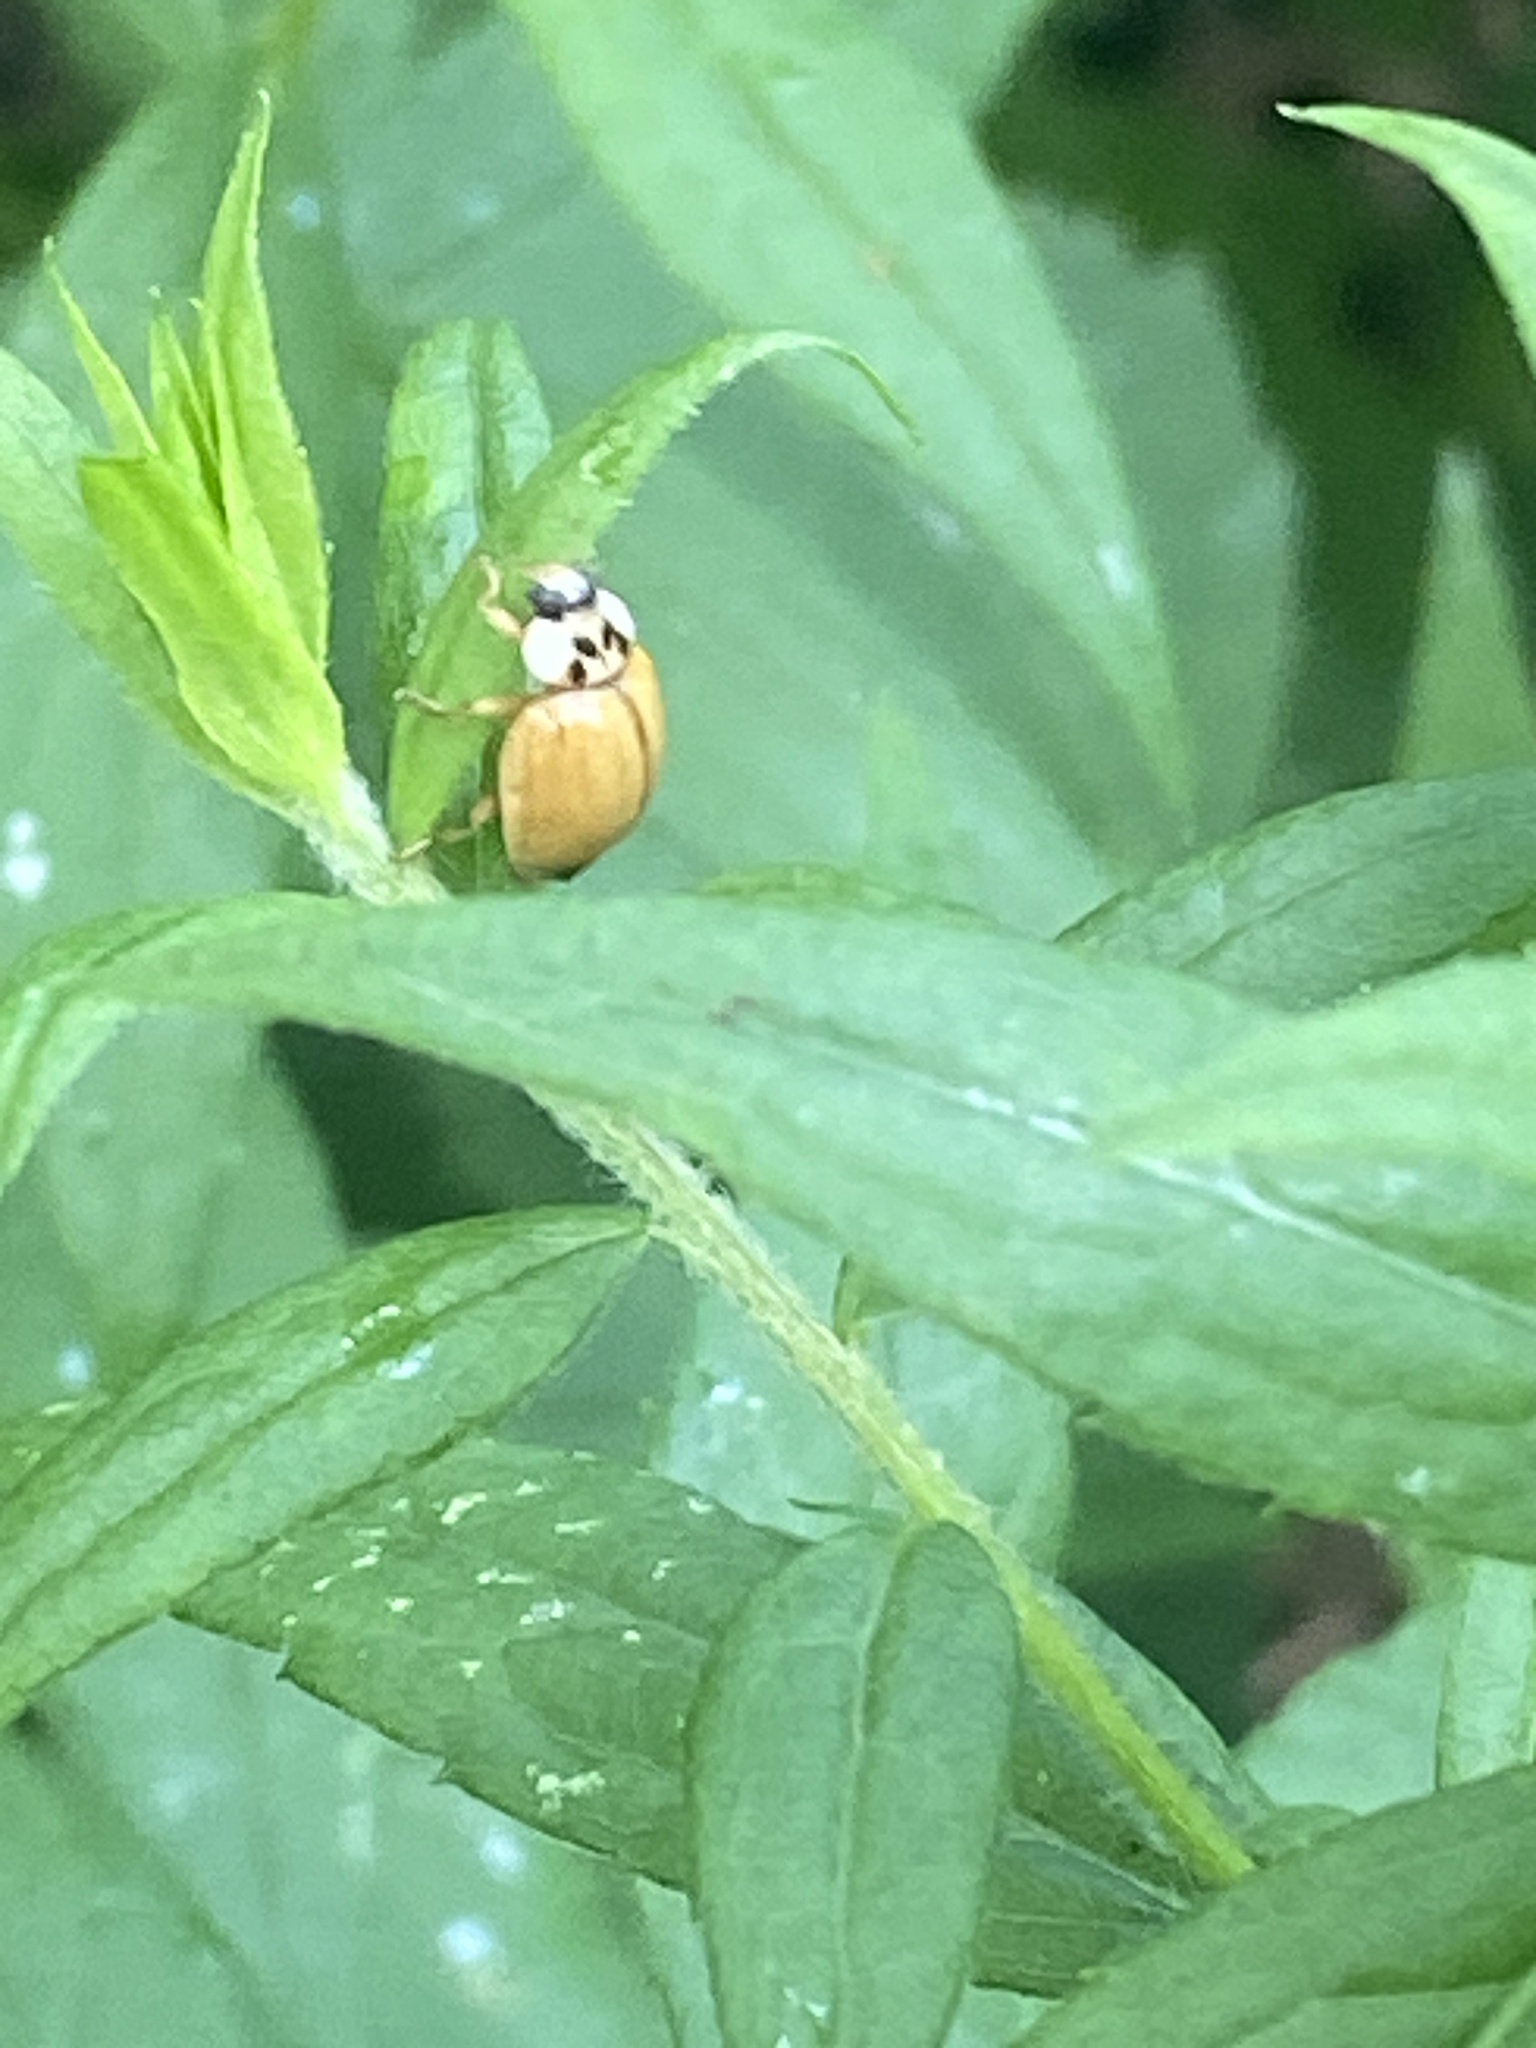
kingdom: Animalia
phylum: Arthropoda
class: Insecta
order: Coleoptera
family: Coccinellidae
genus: Harmonia
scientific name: Harmonia axyridis
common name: Harlequin ladybird
